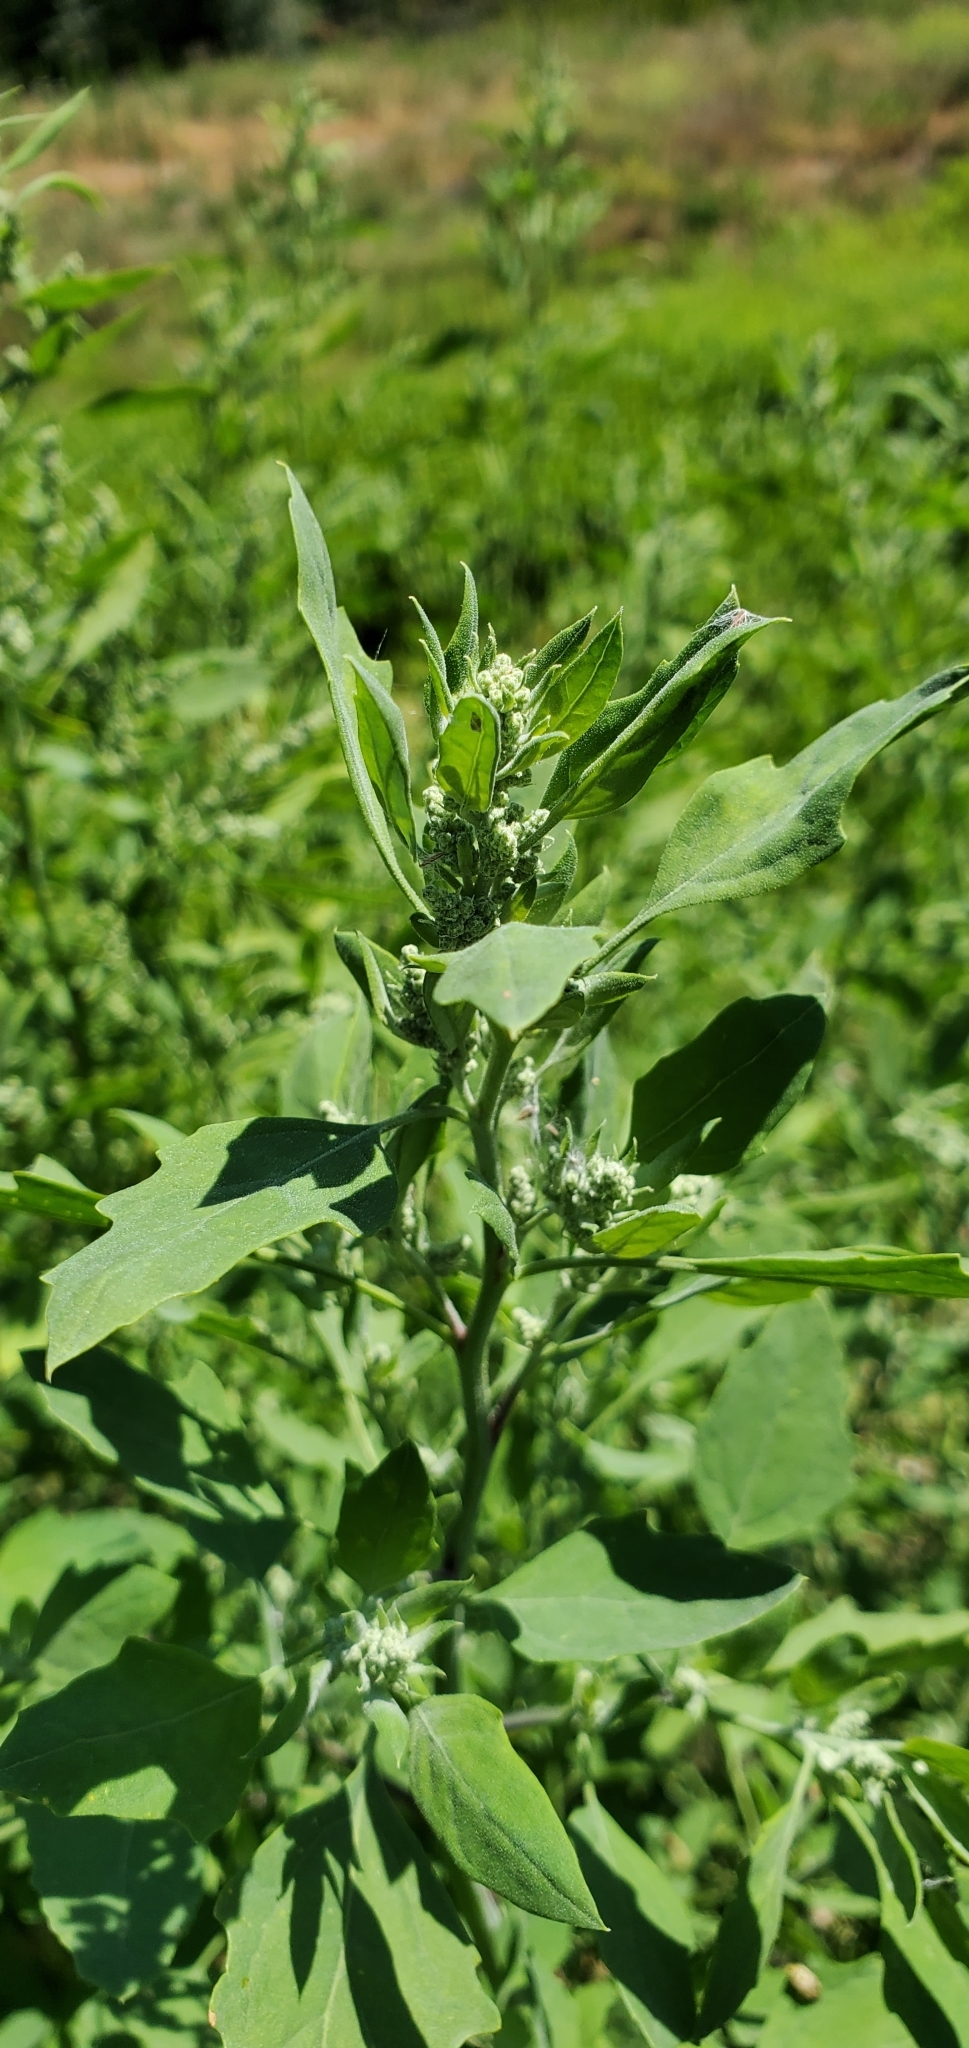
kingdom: Plantae
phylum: Tracheophyta
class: Magnoliopsida
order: Caryophyllales
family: Amaranthaceae
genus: Chenopodium
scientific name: Chenopodium album
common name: Fat-hen
